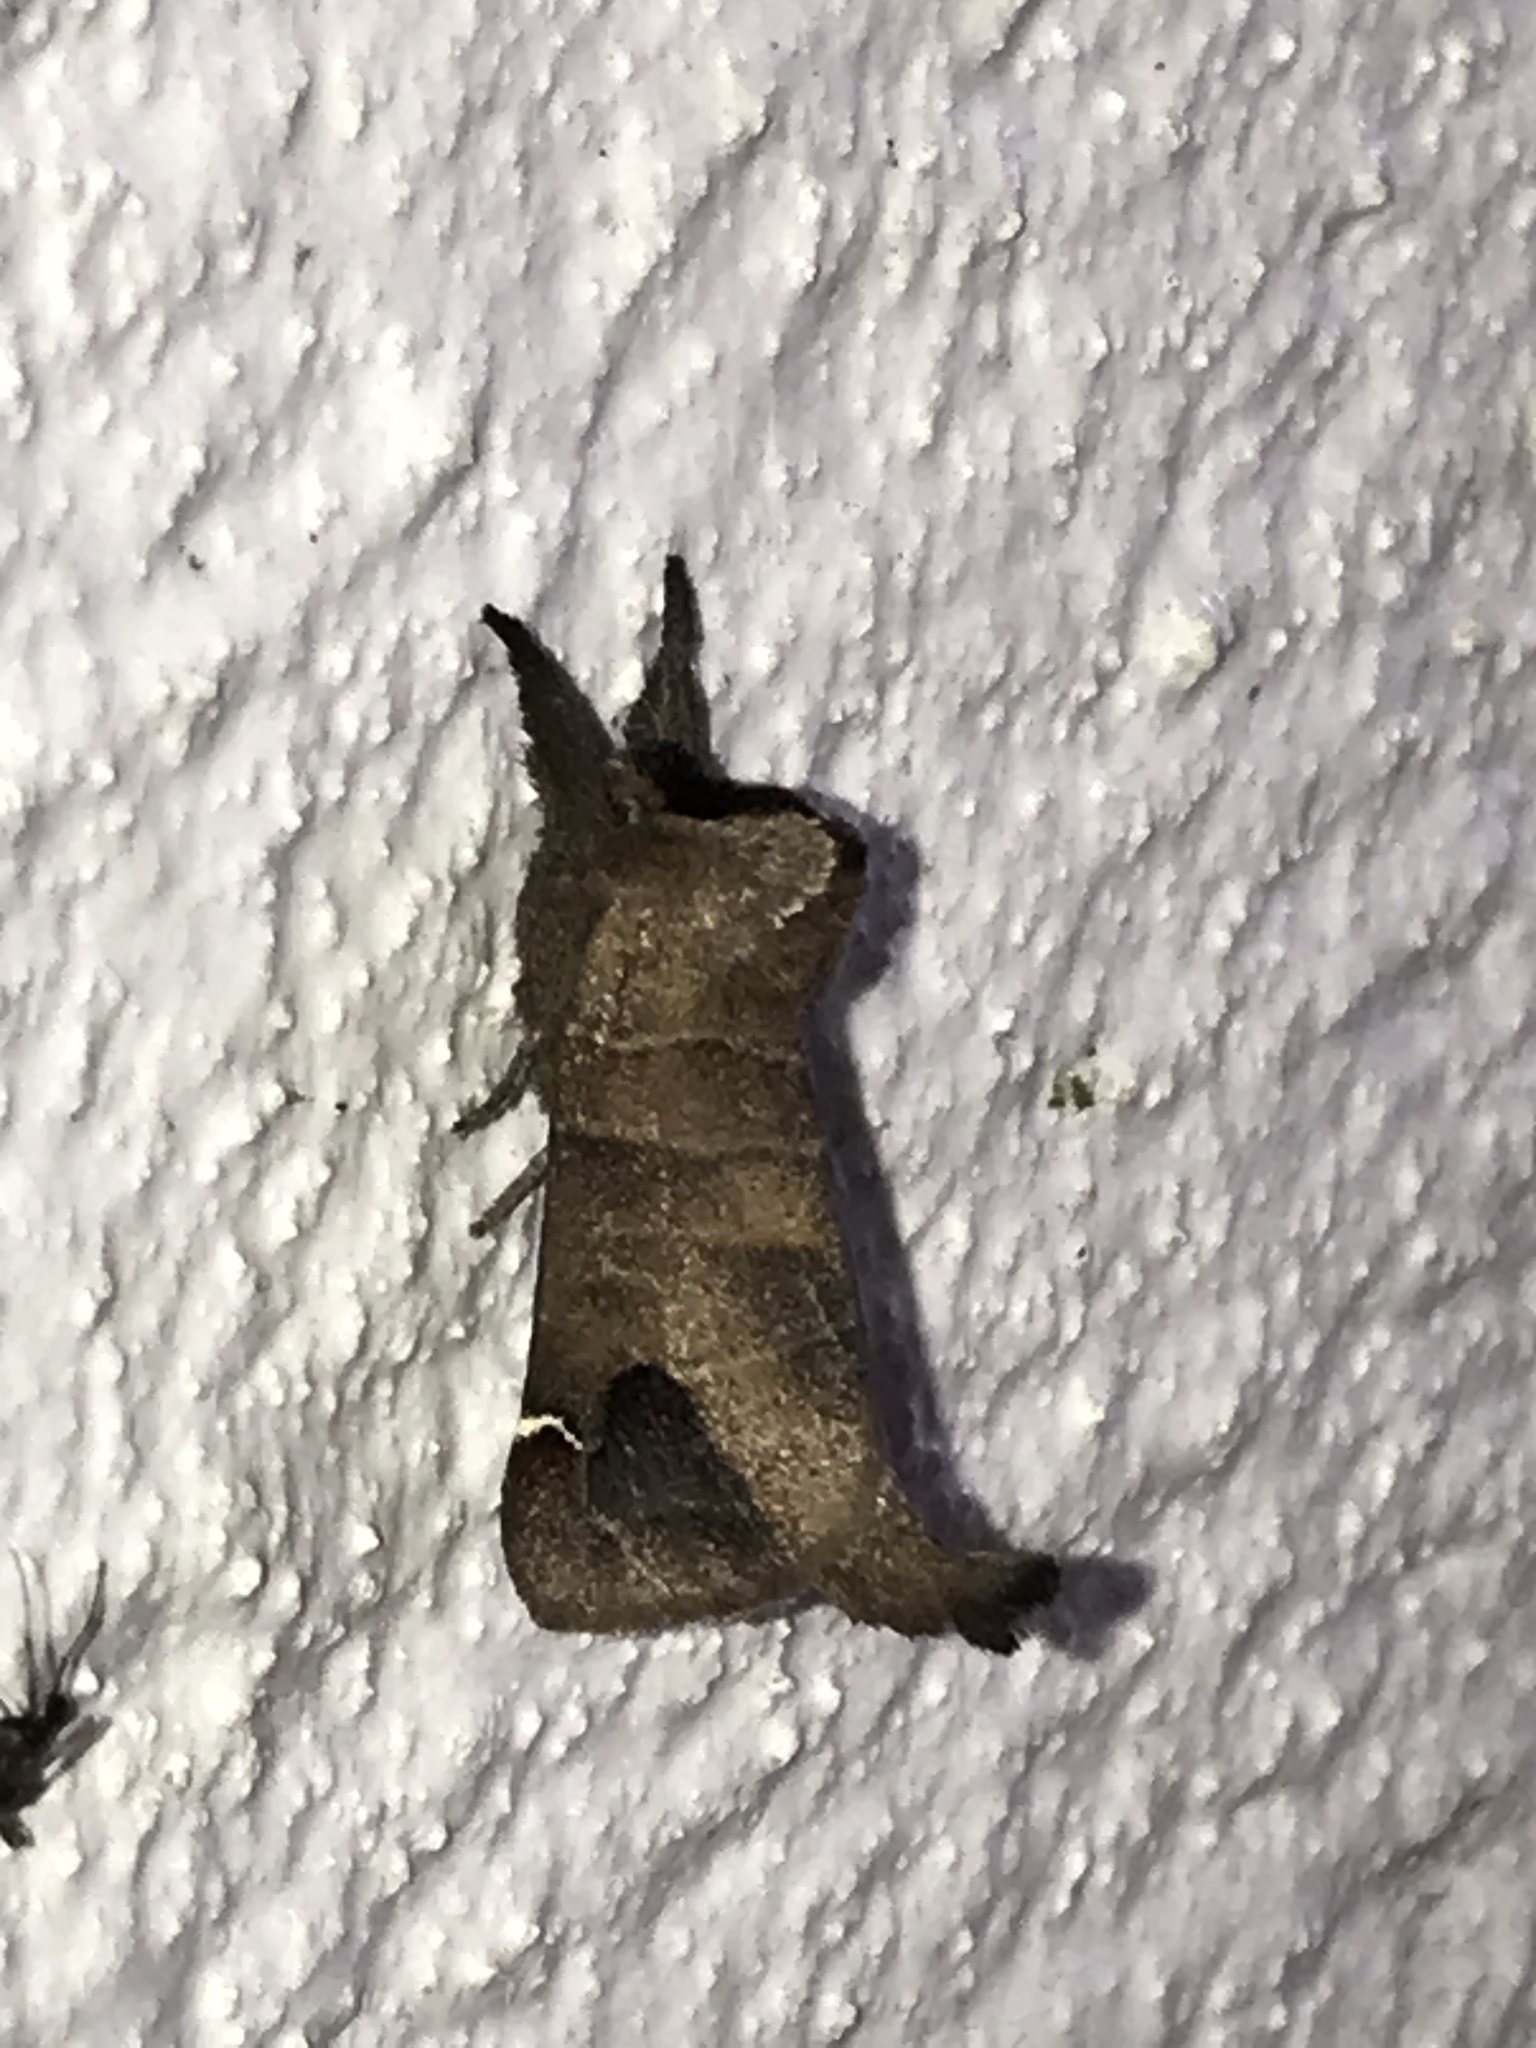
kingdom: Animalia
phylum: Arthropoda
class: Insecta
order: Lepidoptera
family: Notodontidae
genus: Clostera
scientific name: Clostera albosigma
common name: Sigmoid prominent
